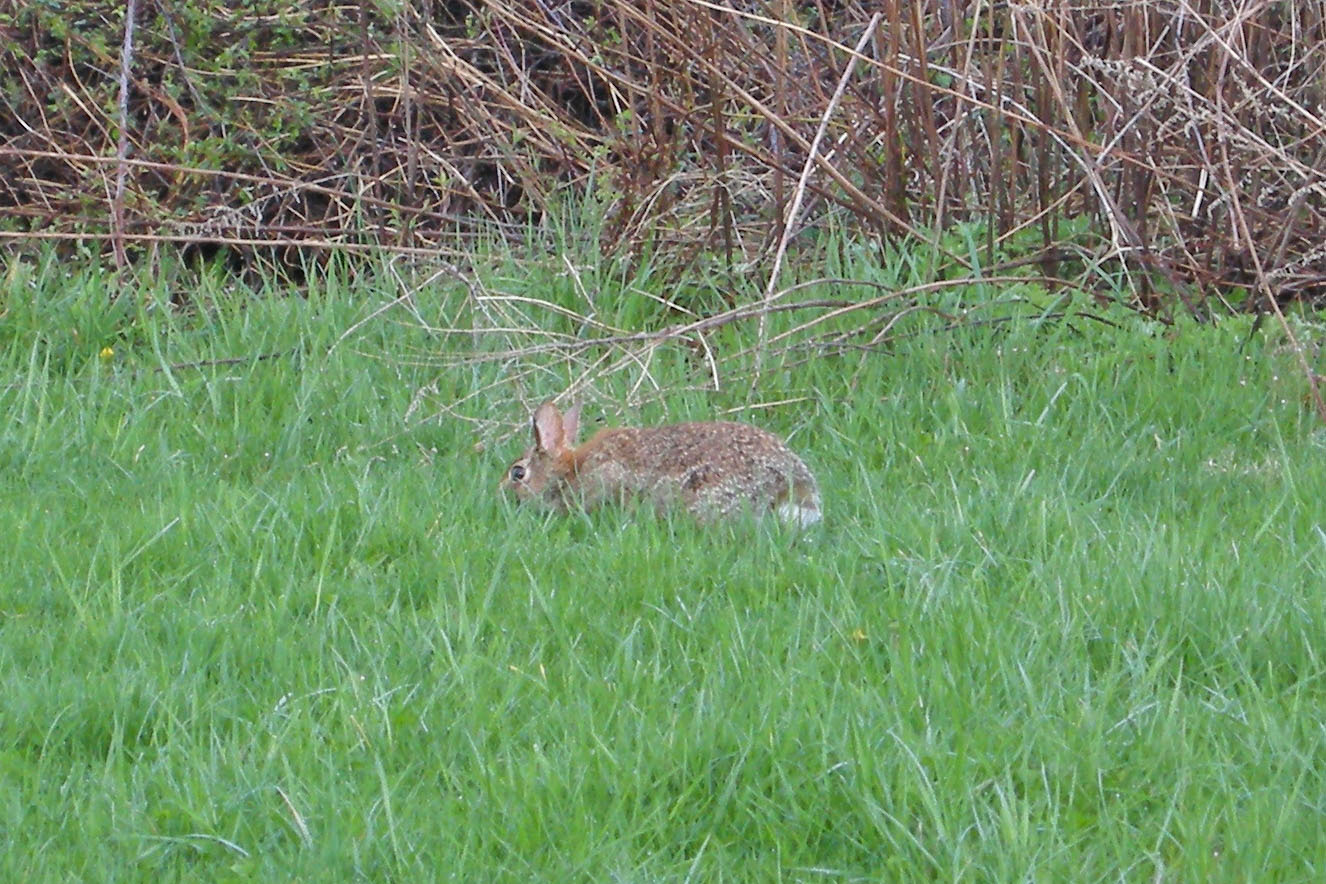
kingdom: Animalia
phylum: Chordata
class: Mammalia
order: Lagomorpha
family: Leporidae
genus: Sylvilagus
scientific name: Sylvilagus floridanus
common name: Eastern cottontail
